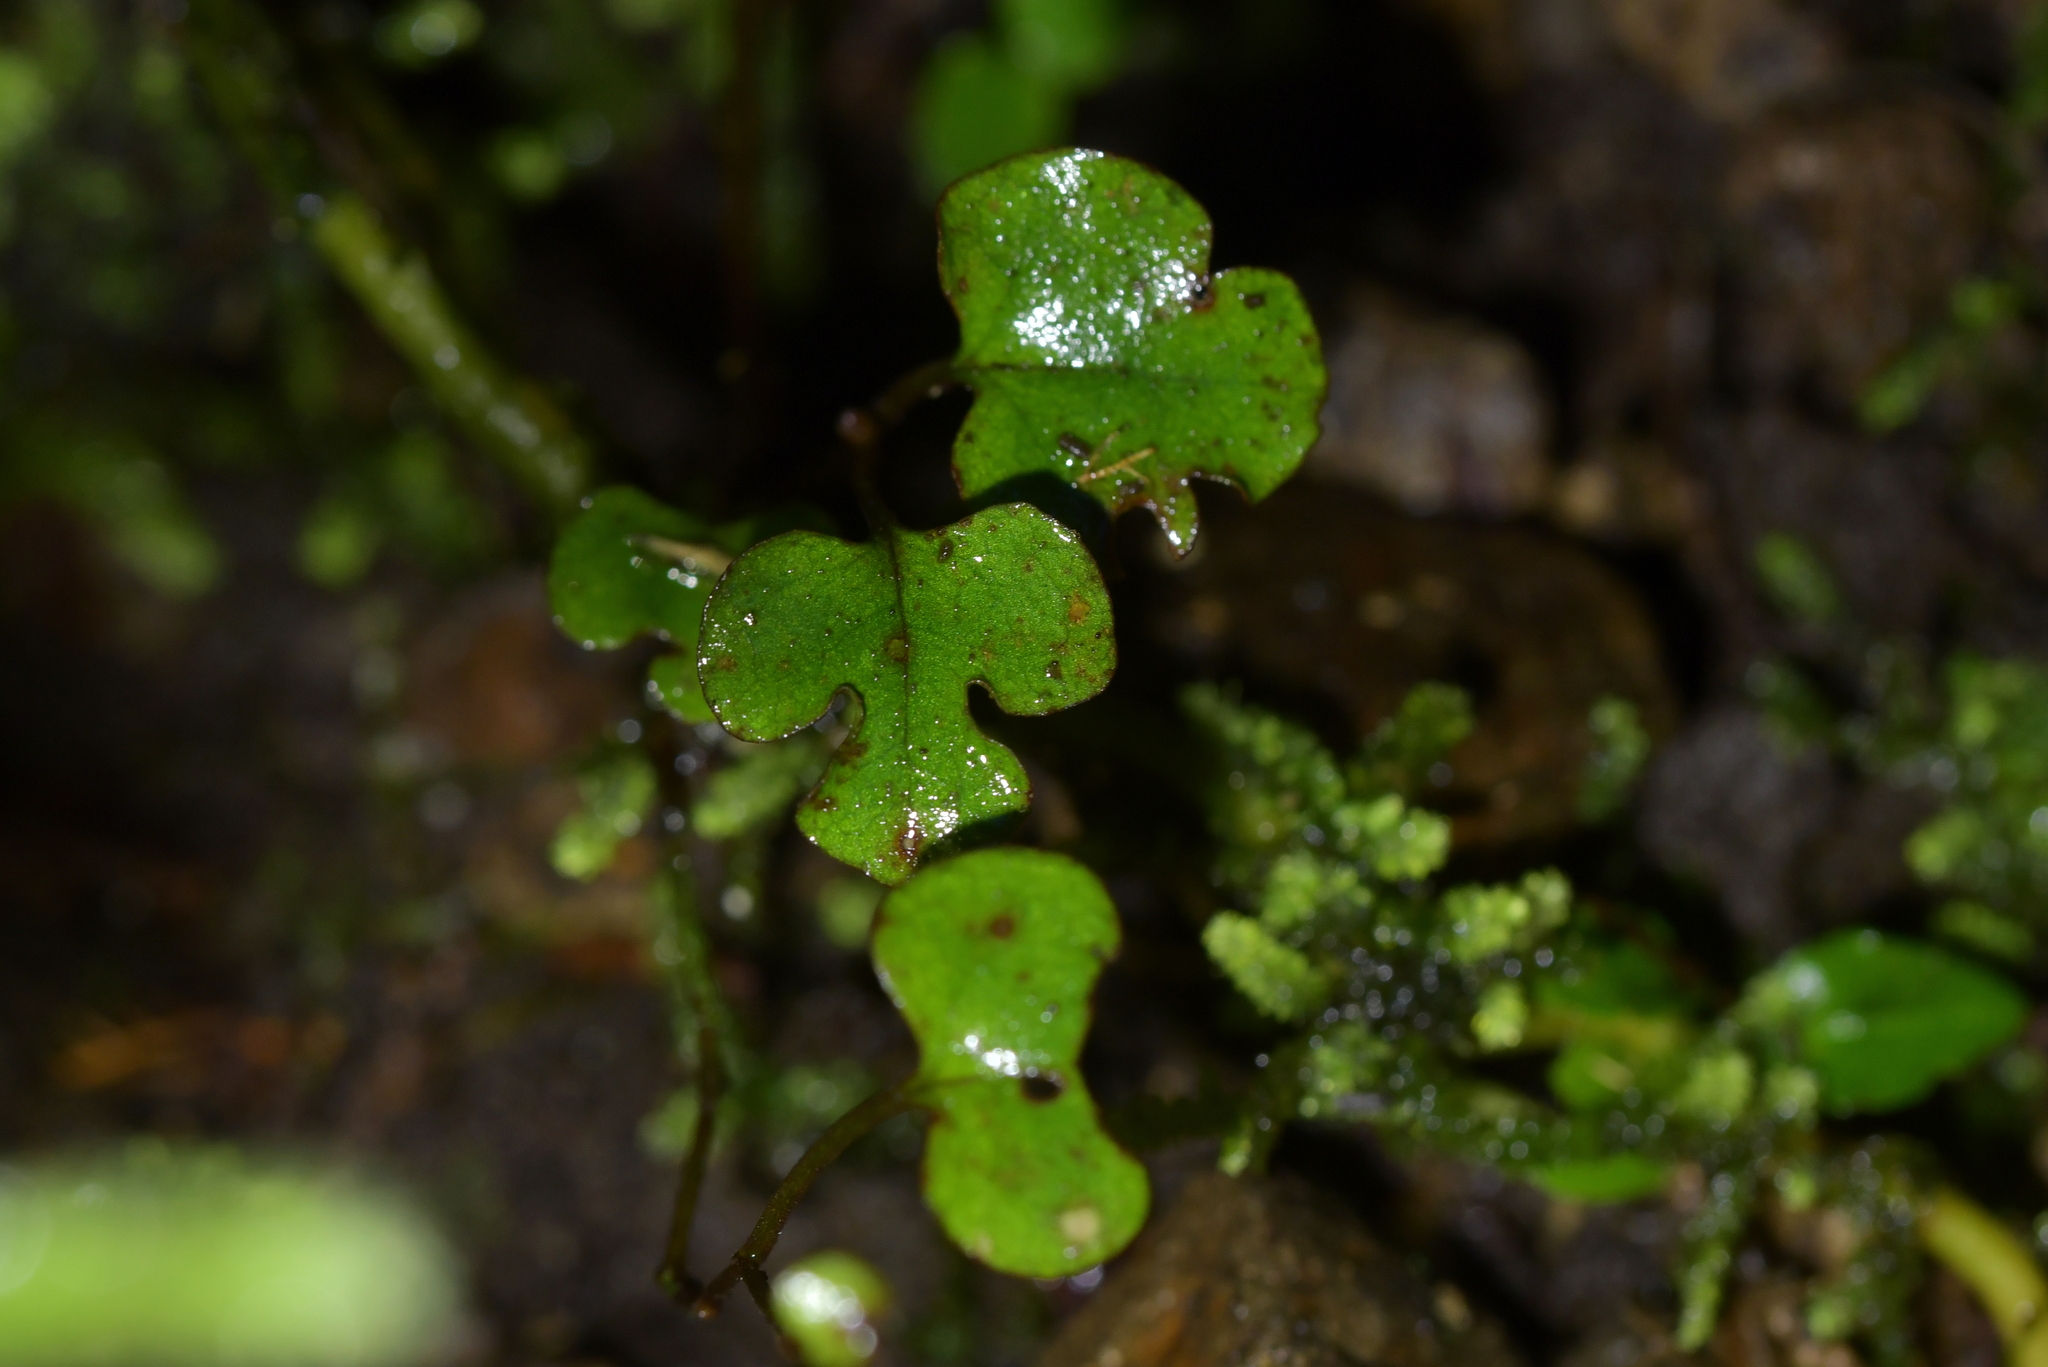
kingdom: Plantae
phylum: Tracheophyta
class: Magnoliopsida
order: Caryophyllales
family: Polygonaceae
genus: Muehlenbeckia
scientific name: Muehlenbeckia australis
